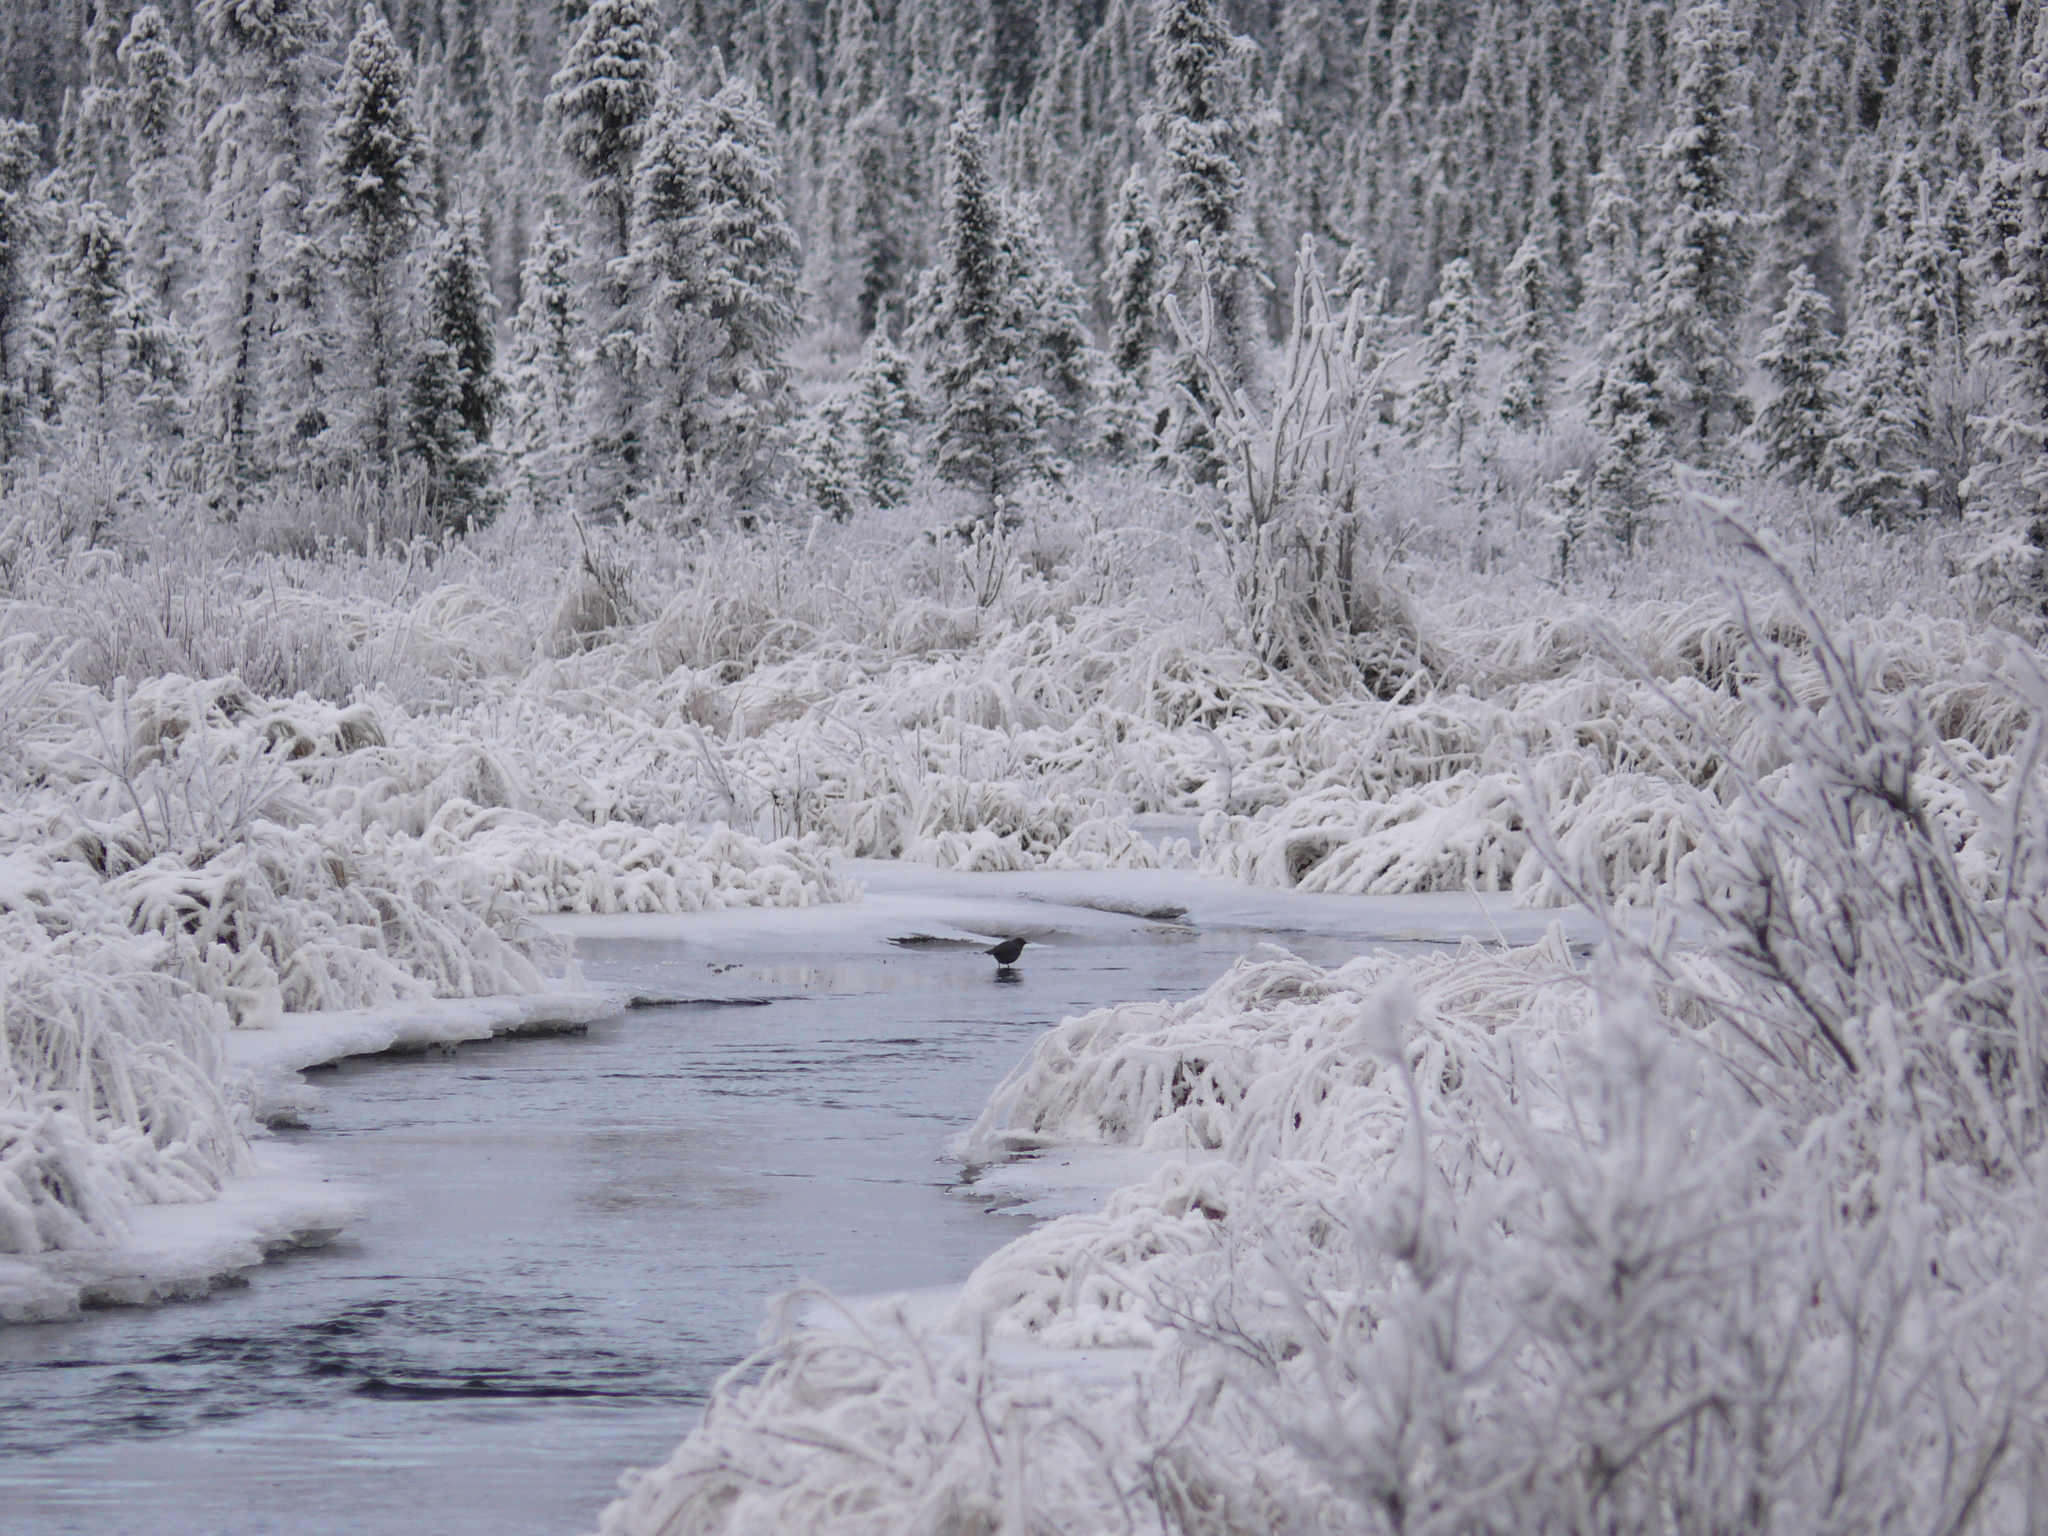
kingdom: Animalia
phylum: Chordata
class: Aves
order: Passeriformes
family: Cinclidae
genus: Cinclus
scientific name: Cinclus mexicanus
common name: American dipper
